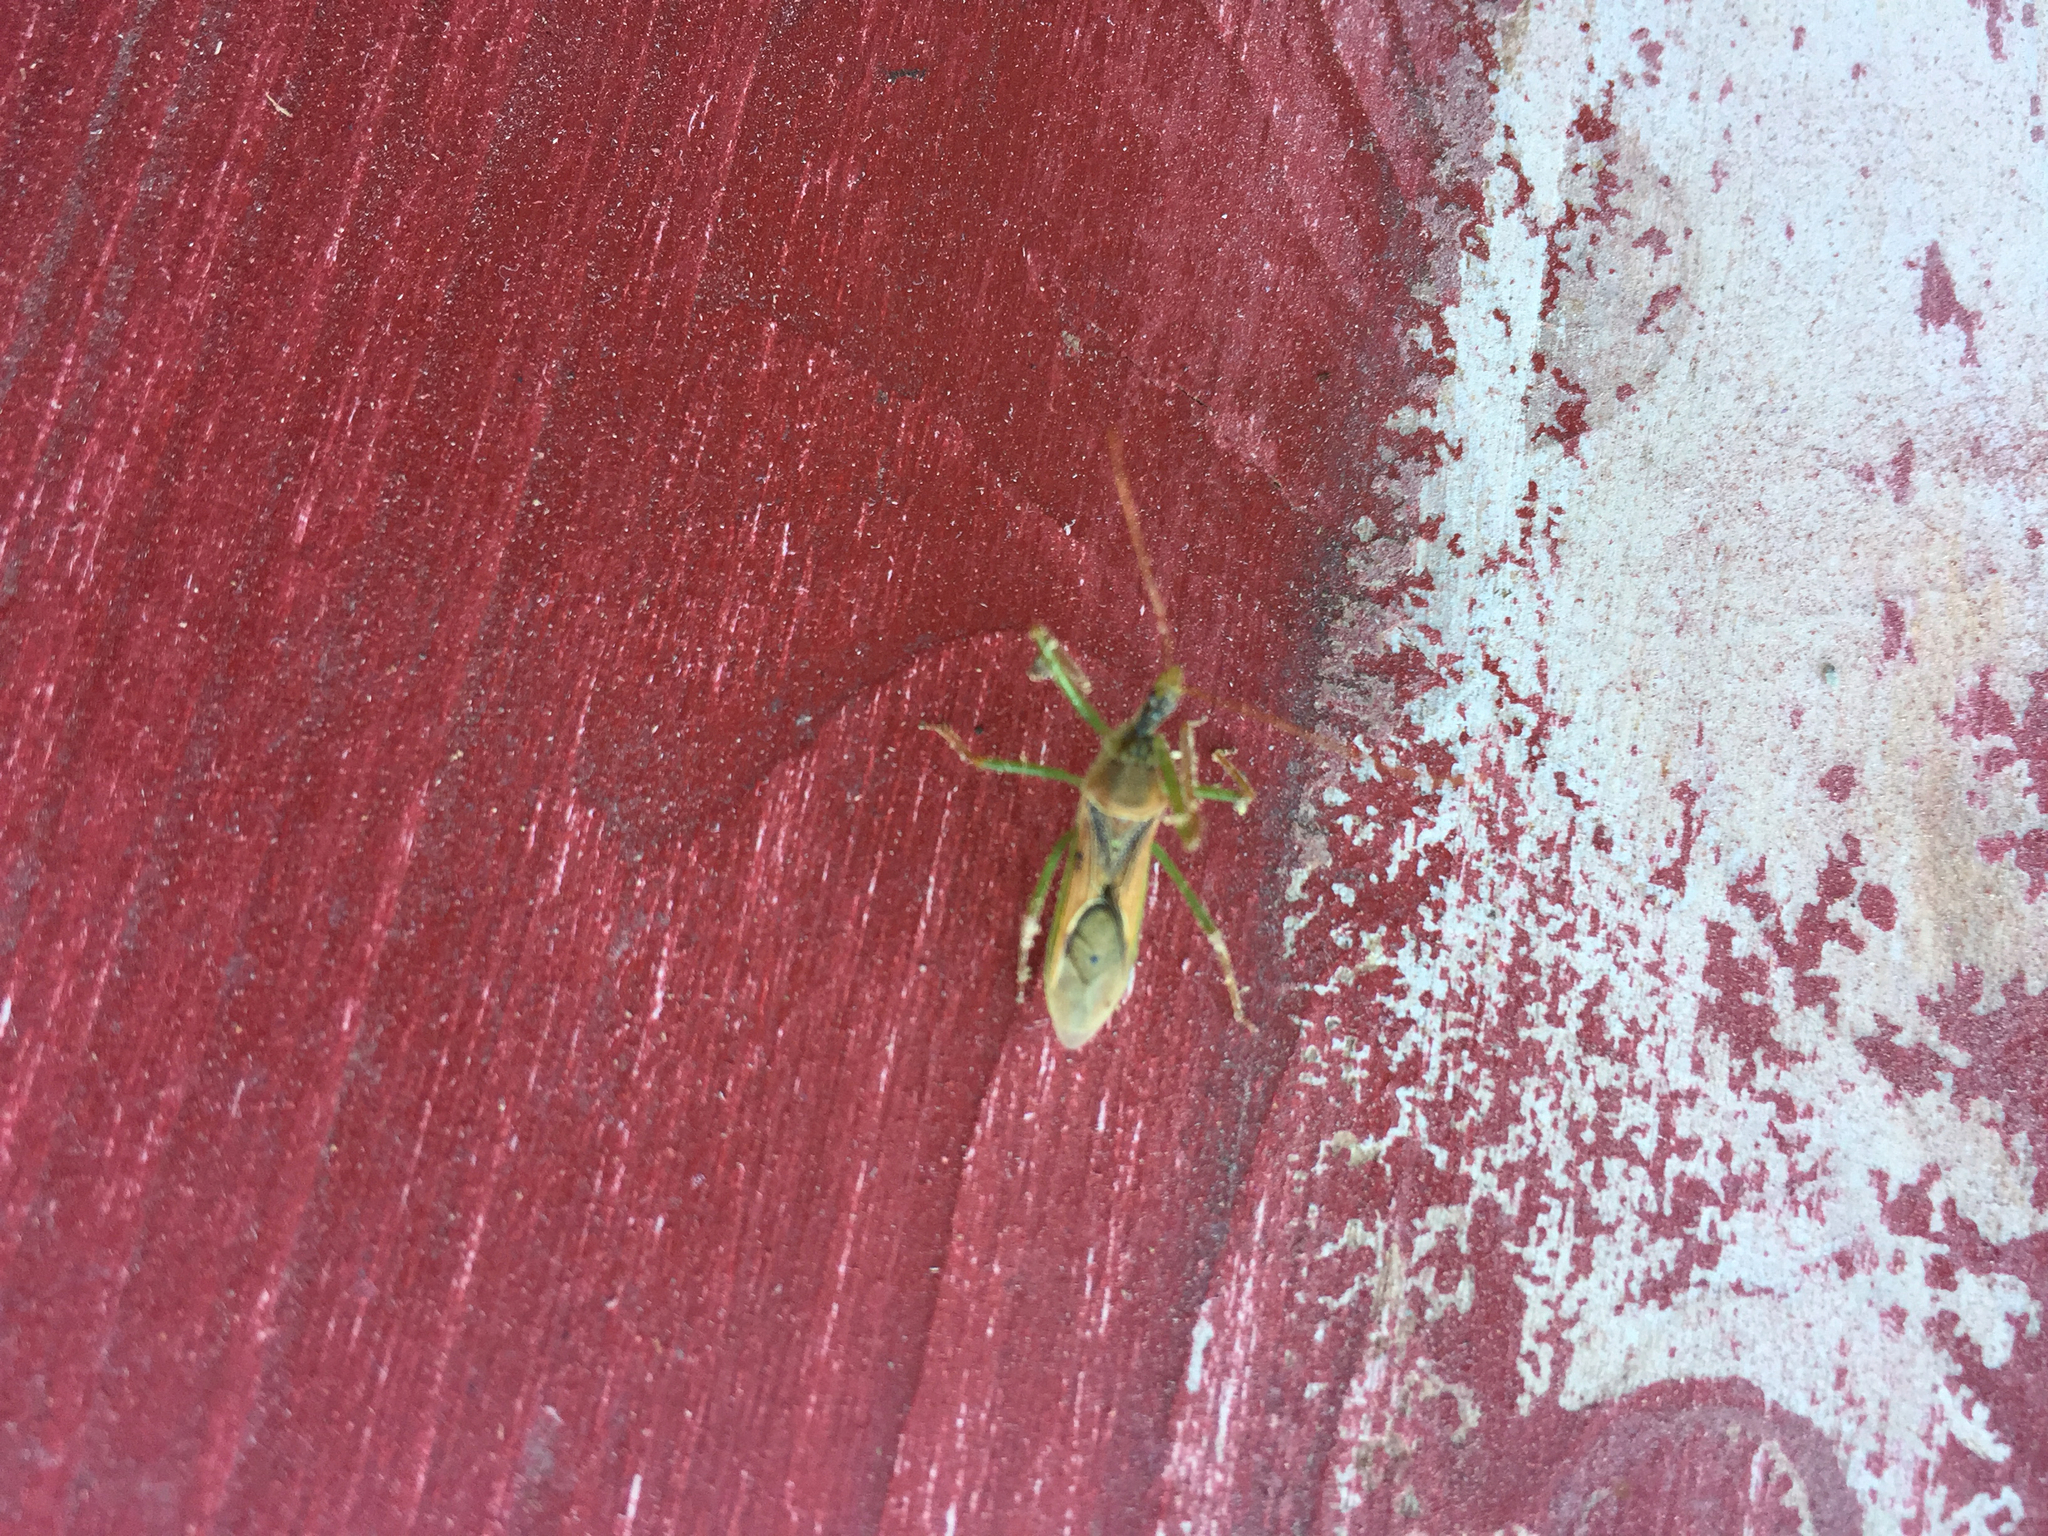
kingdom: Animalia
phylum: Arthropoda
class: Insecta
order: Hemiptera
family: Reduviidae
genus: Zelus
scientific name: Zelus renardii
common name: Assassin bug
